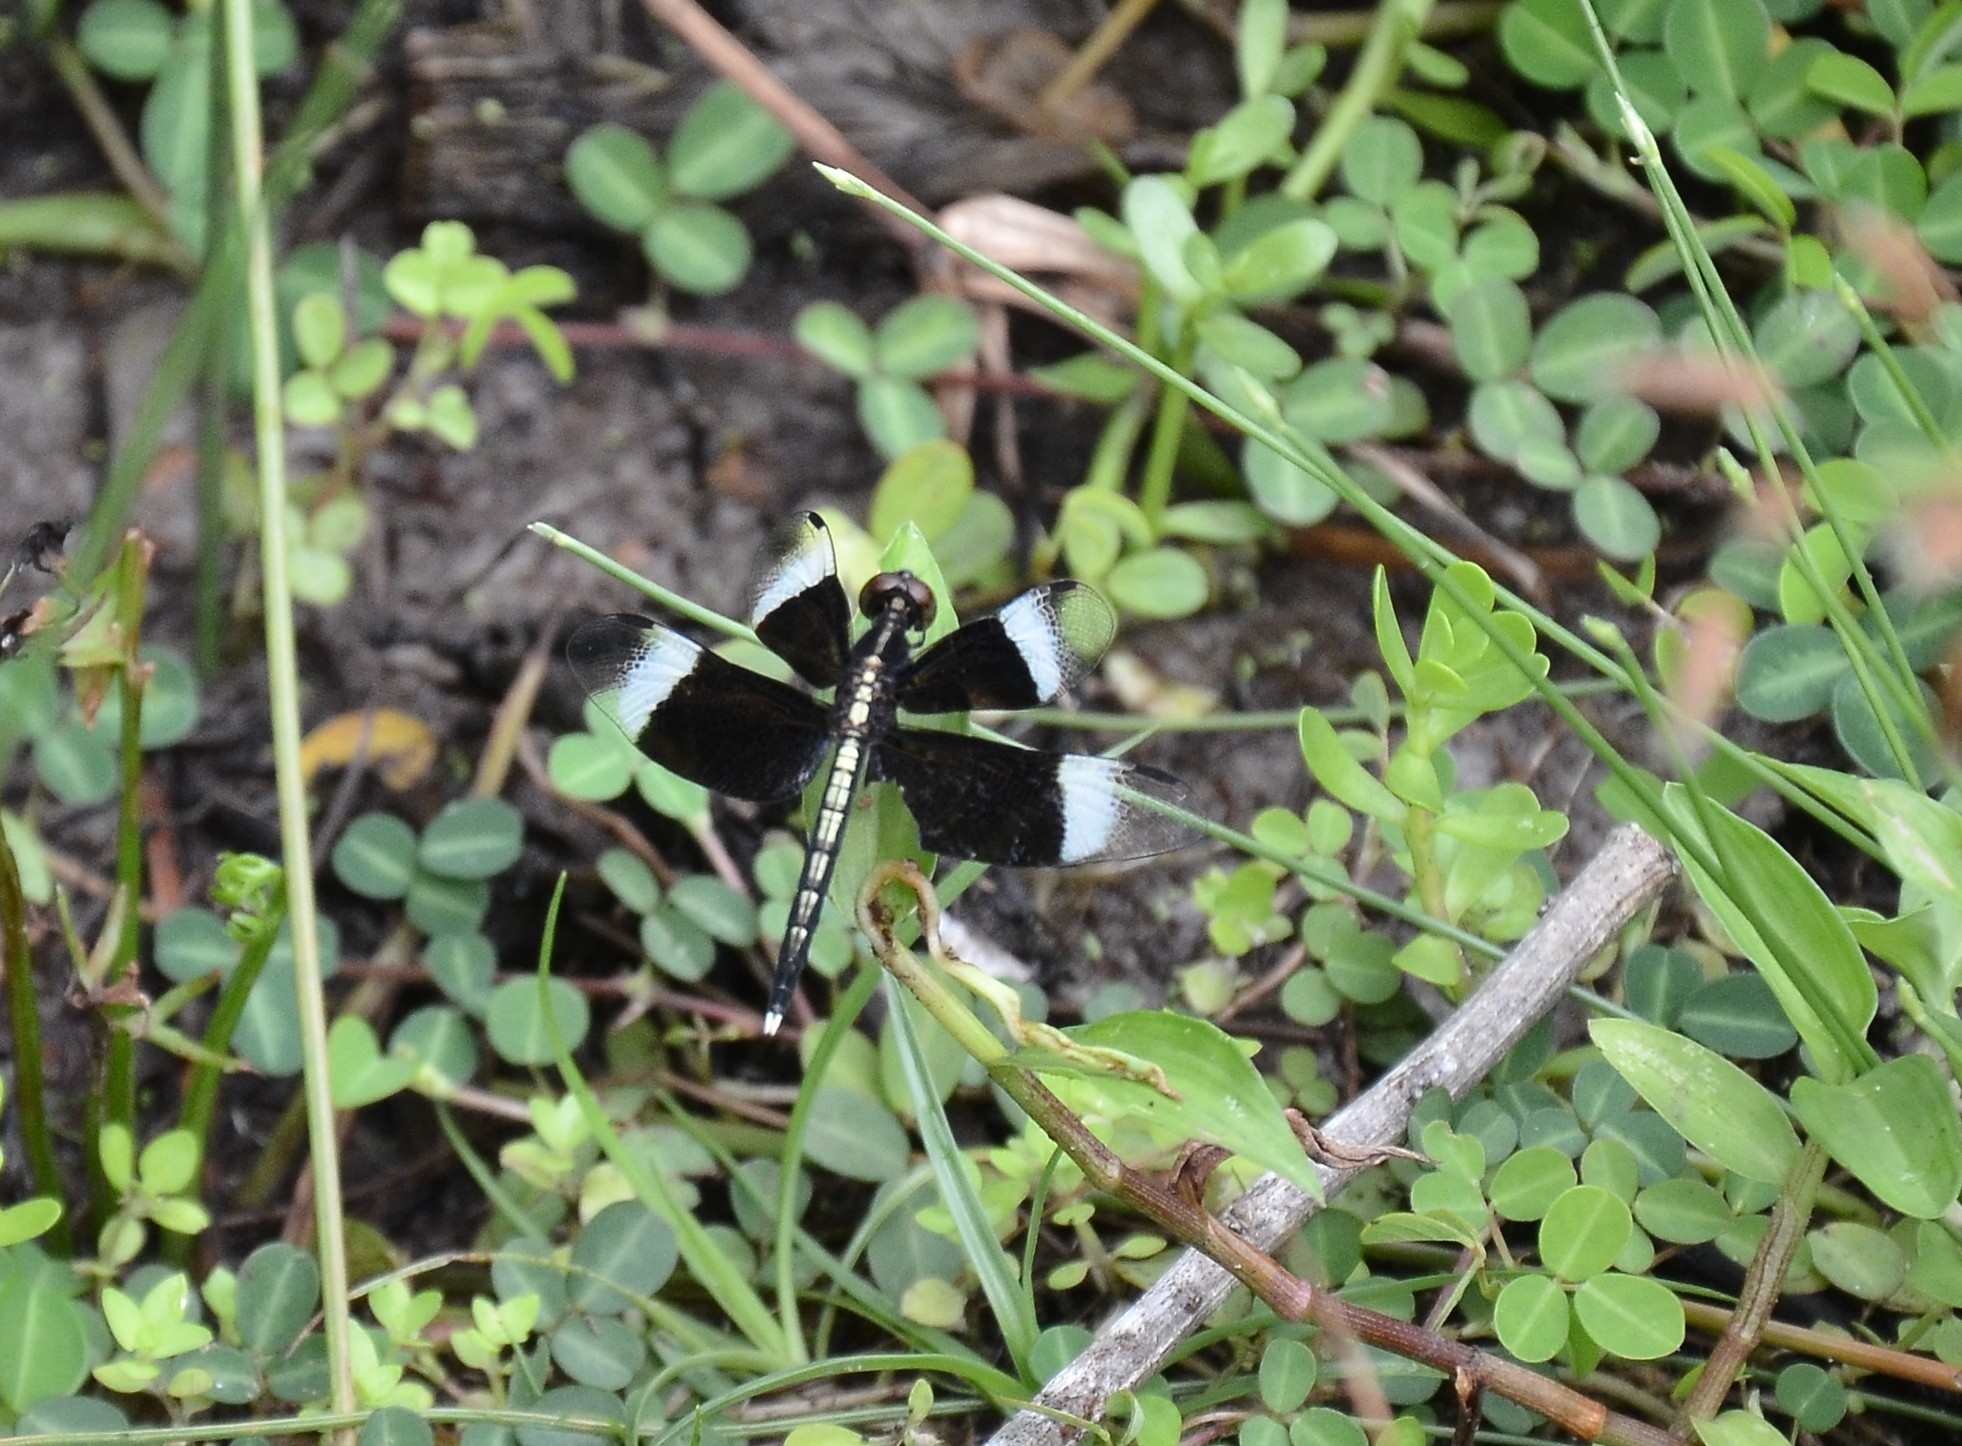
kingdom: Animalia
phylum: Arthropoda
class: Insecta
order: Odonata
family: Libellulidae
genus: Neurothemis
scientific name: Neurothemis tullia
